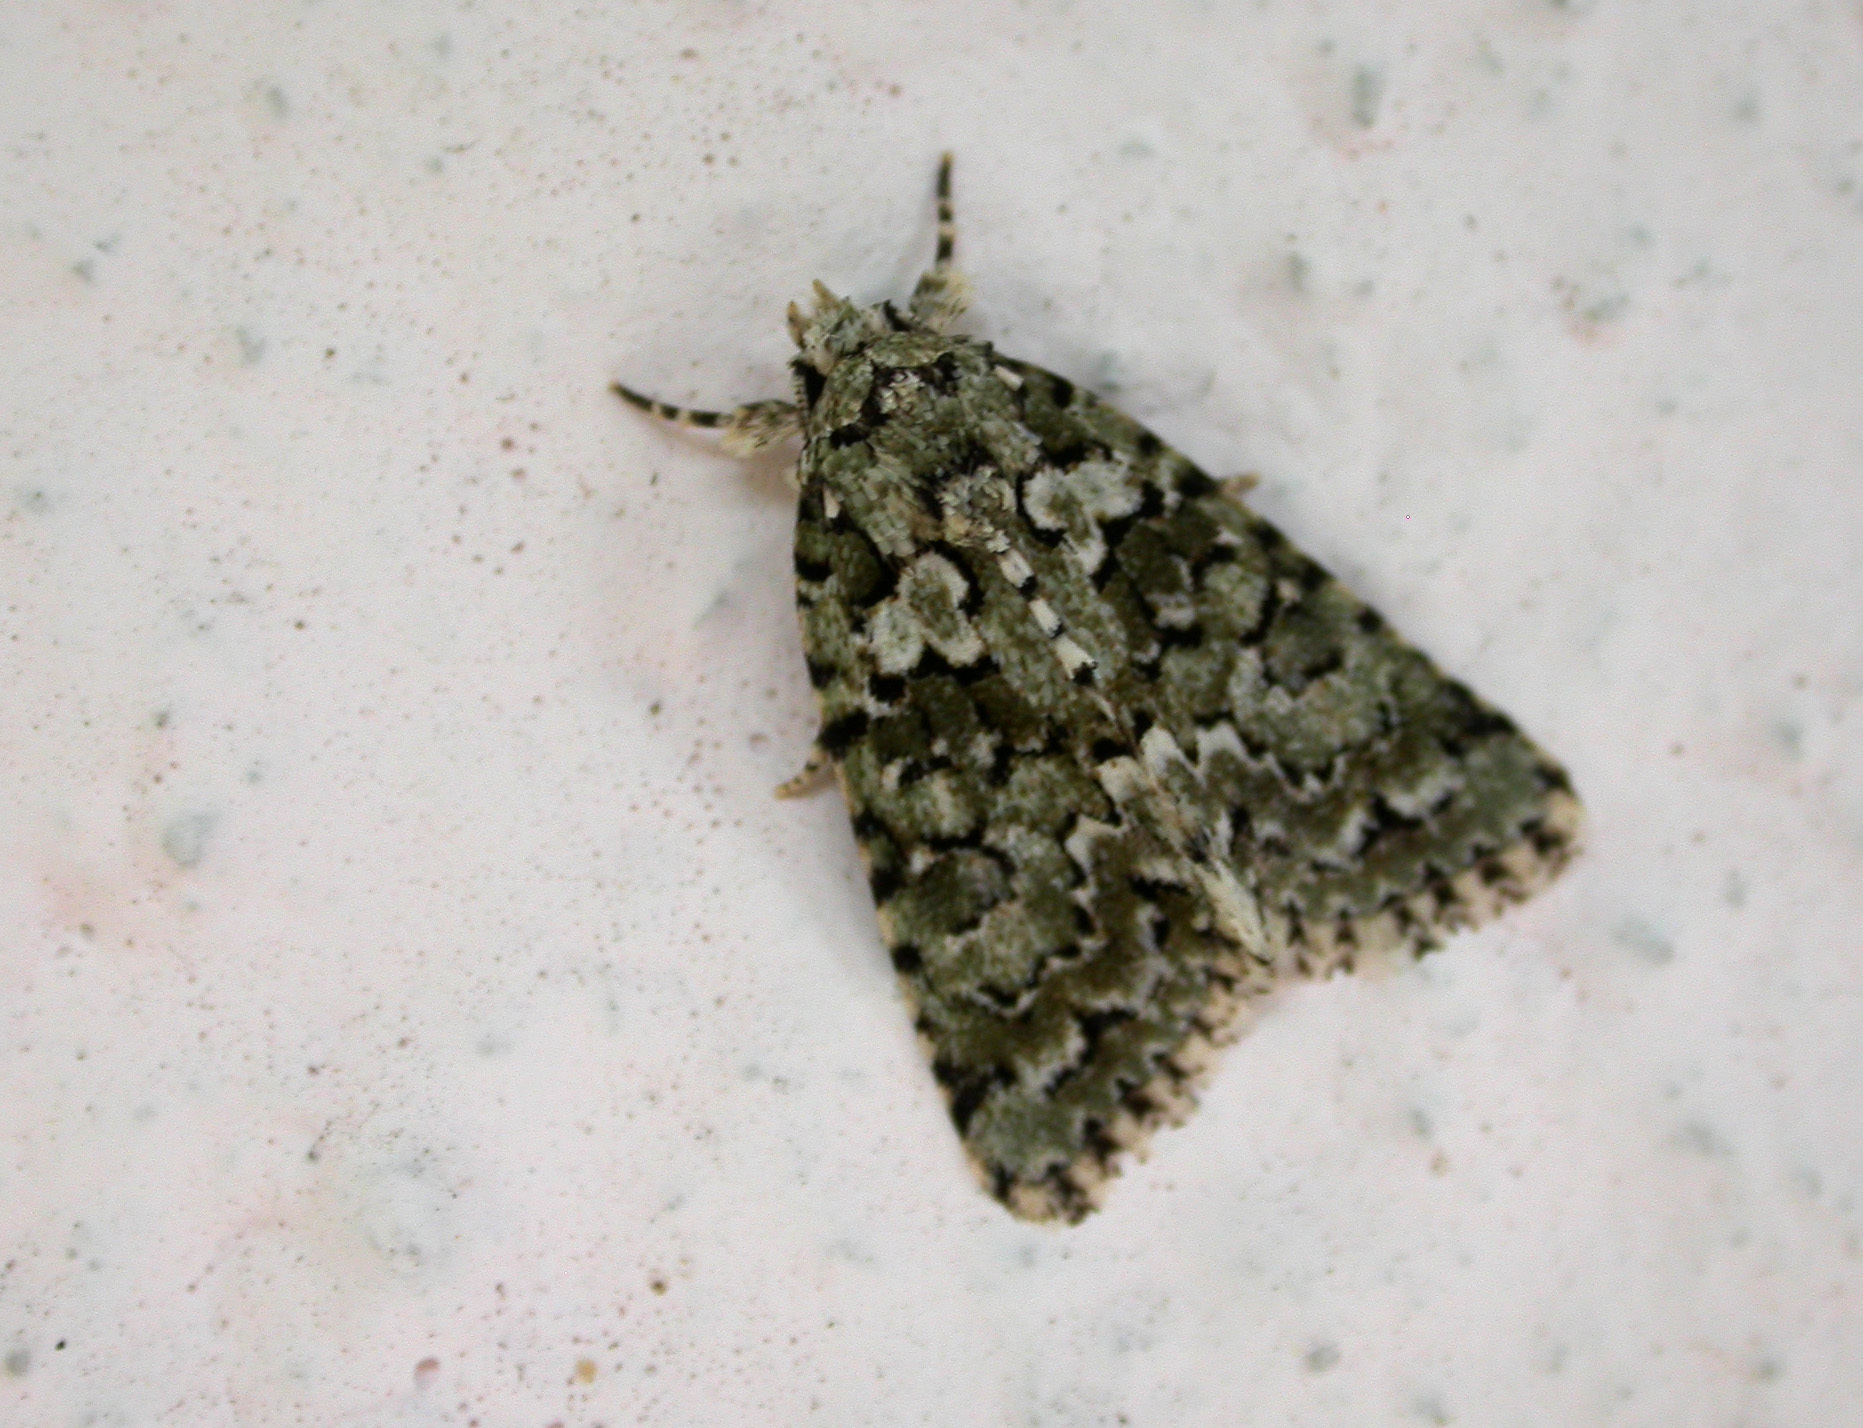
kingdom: Animalia
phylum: Arthropoda
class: Insecta
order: Lepidoptera
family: Noctuidae
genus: Nyctobrya
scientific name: Nyctobrya muralis
